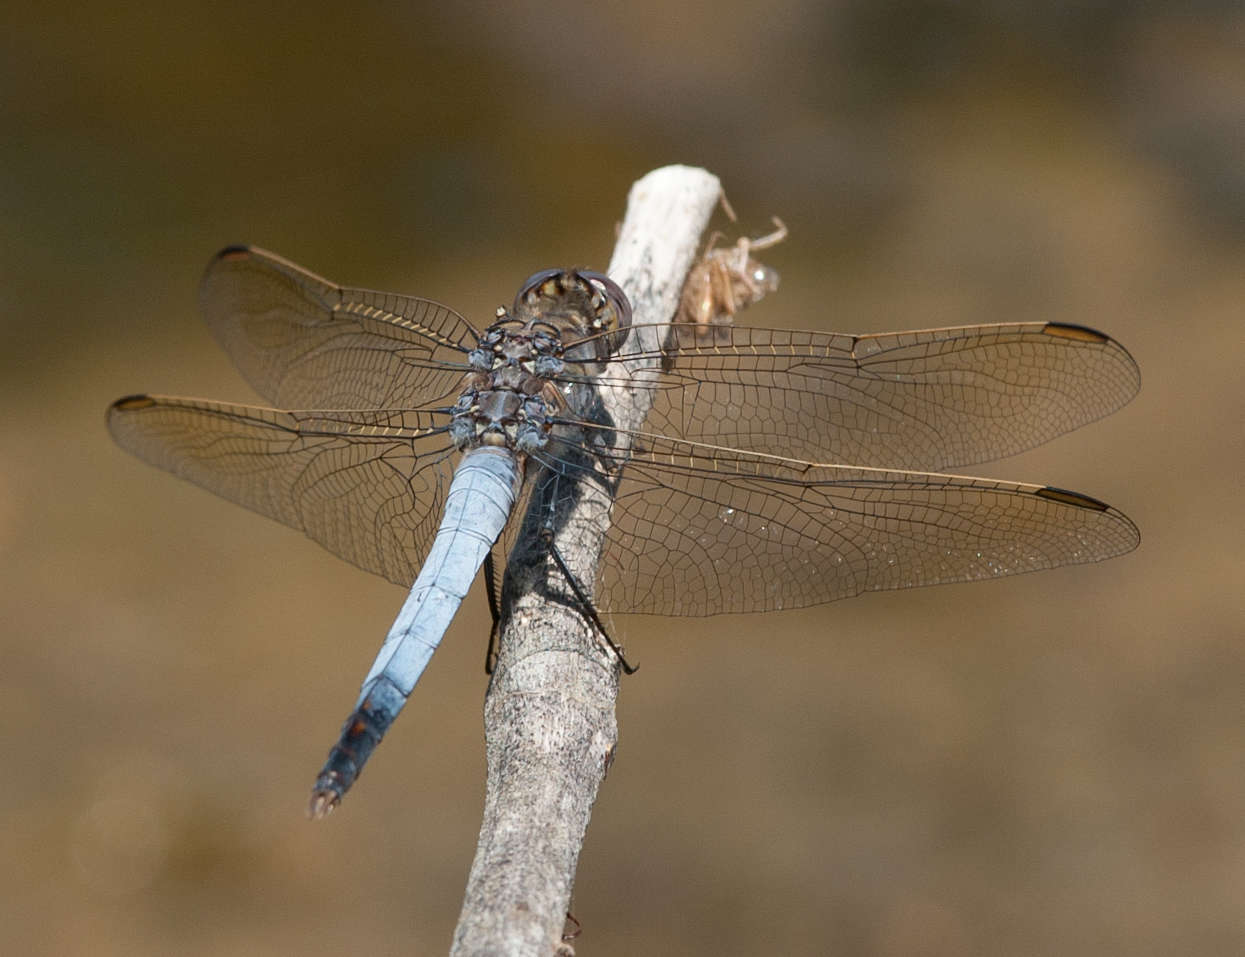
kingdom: Animalia
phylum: Arthropoda
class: Insecta
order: Odonata
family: Libellulidae
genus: Orthetrum
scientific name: Orthetrum caledonicum
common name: Blue skimmer
